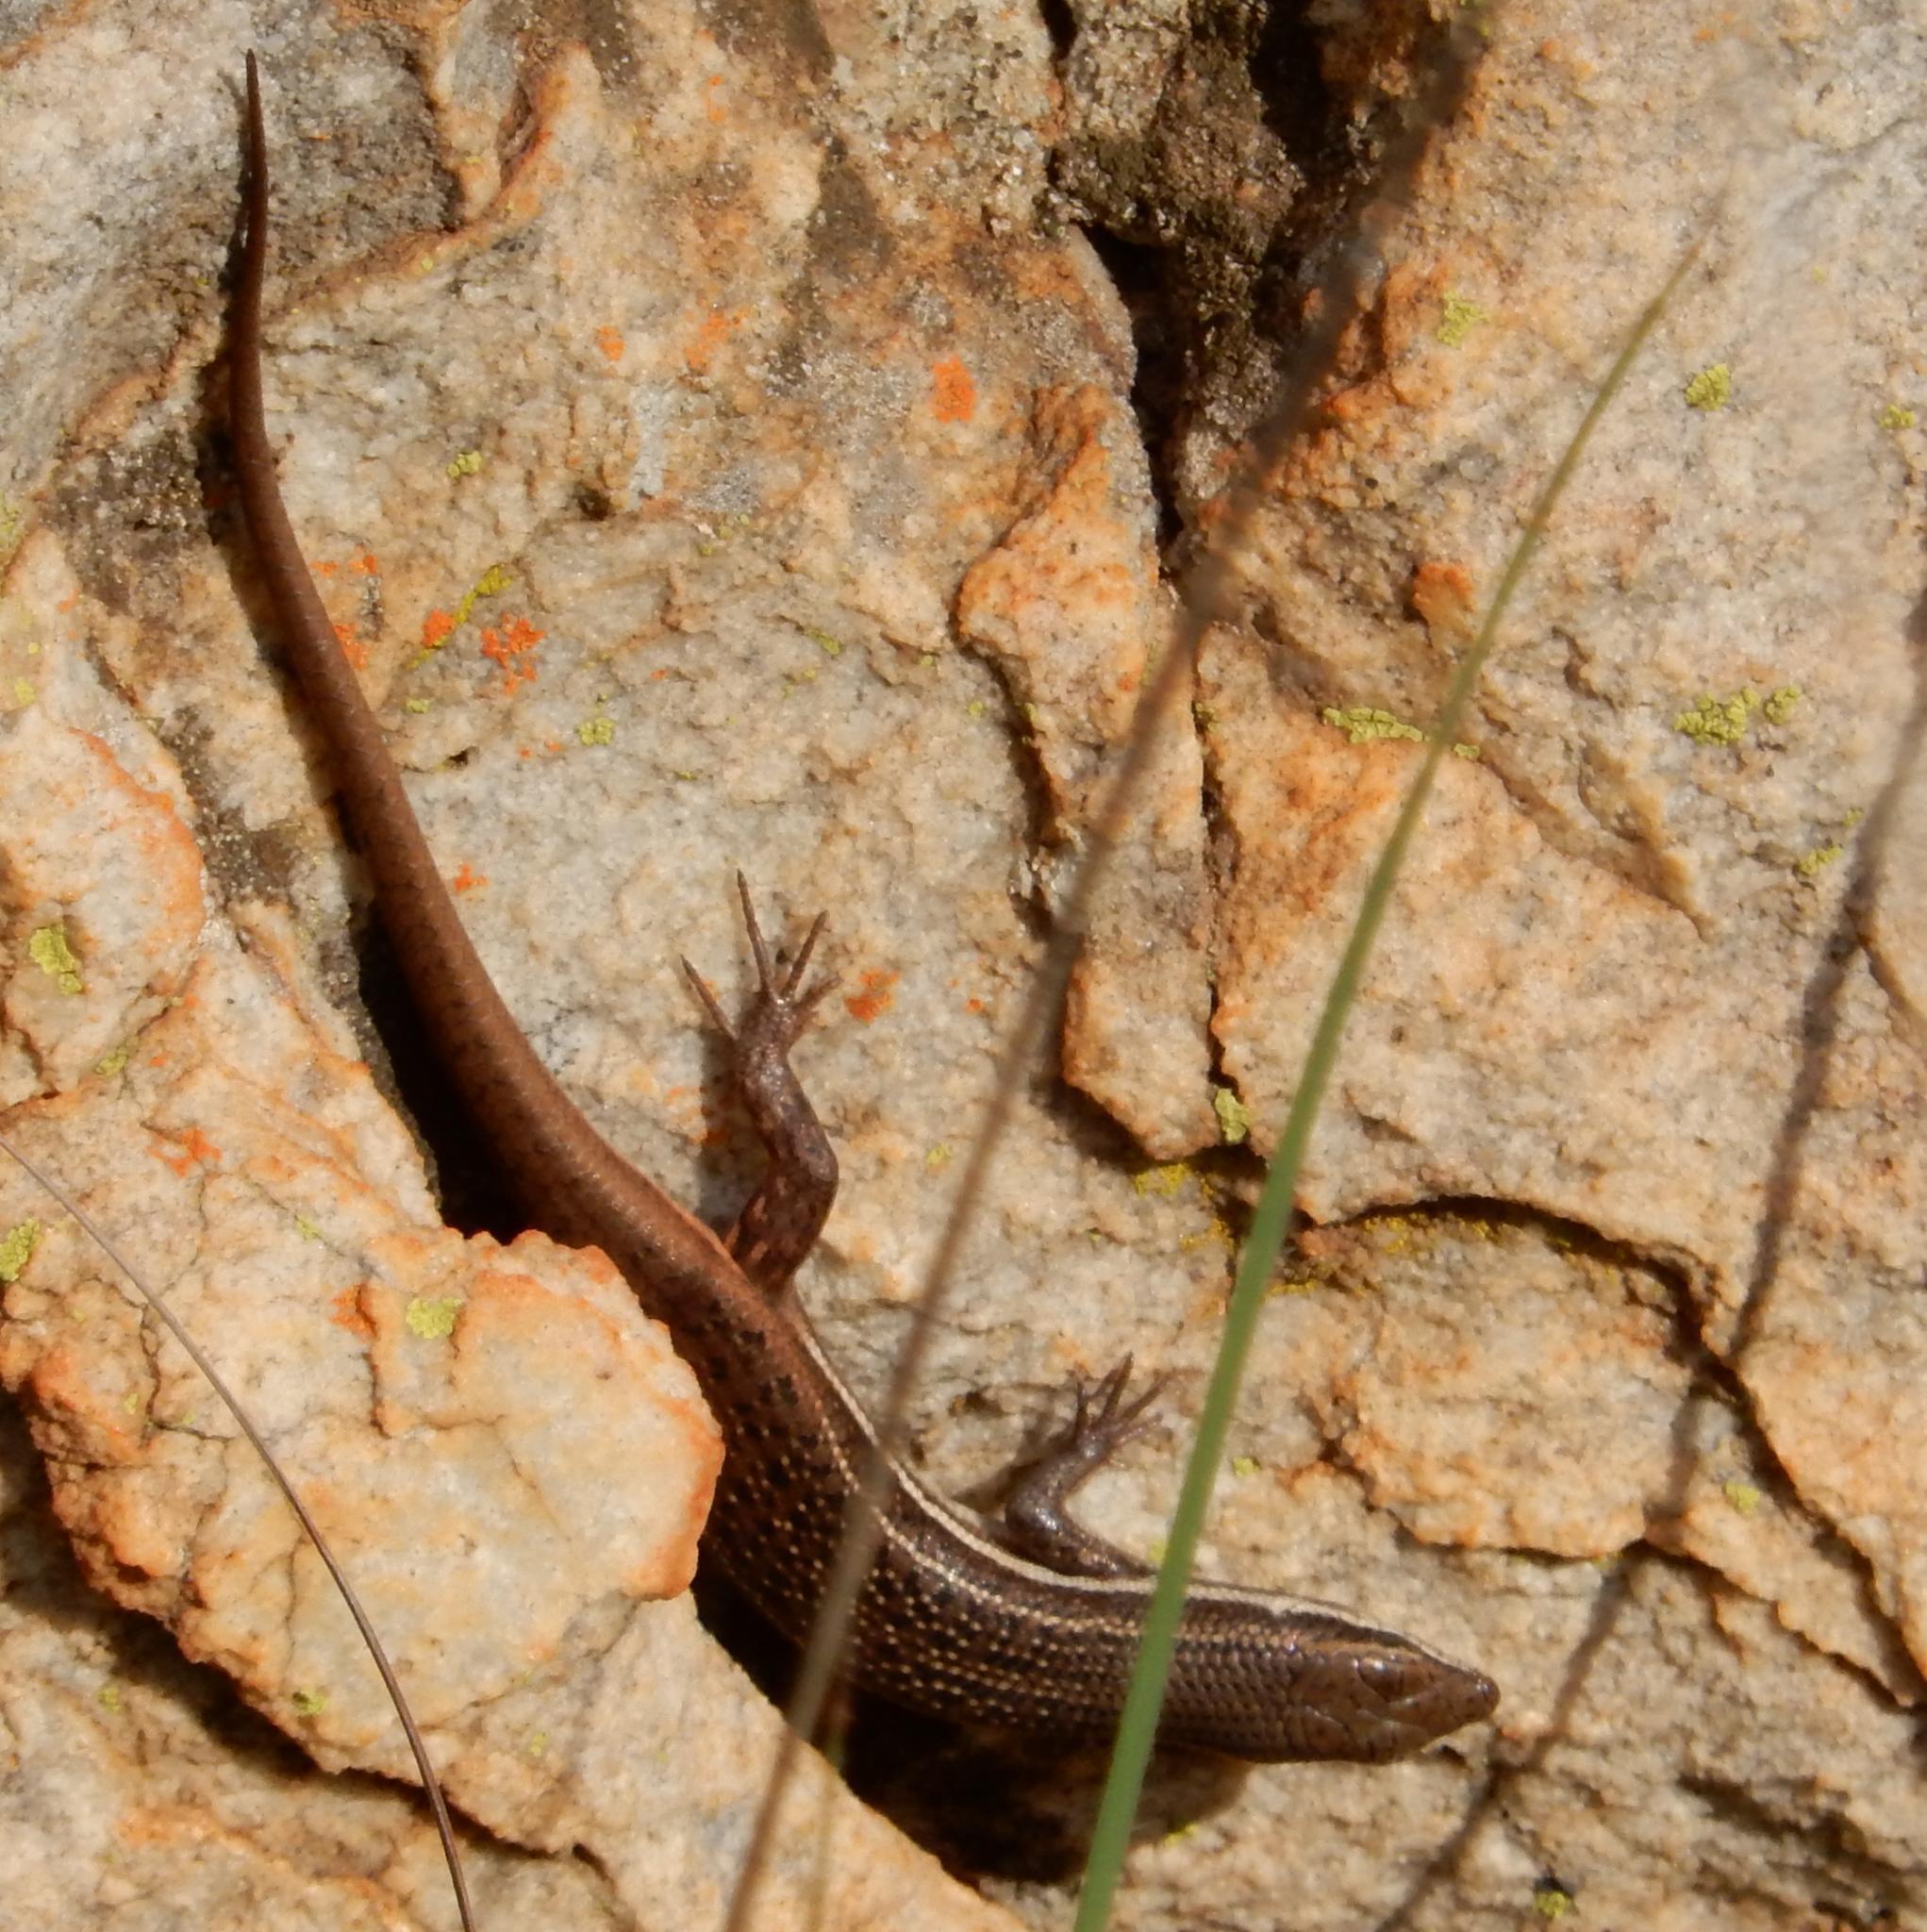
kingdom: Animalia
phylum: Chordata
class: Squamata
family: Scincidae
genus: Trachylepis
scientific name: Trachylepis varia
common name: Eastern variable skink
